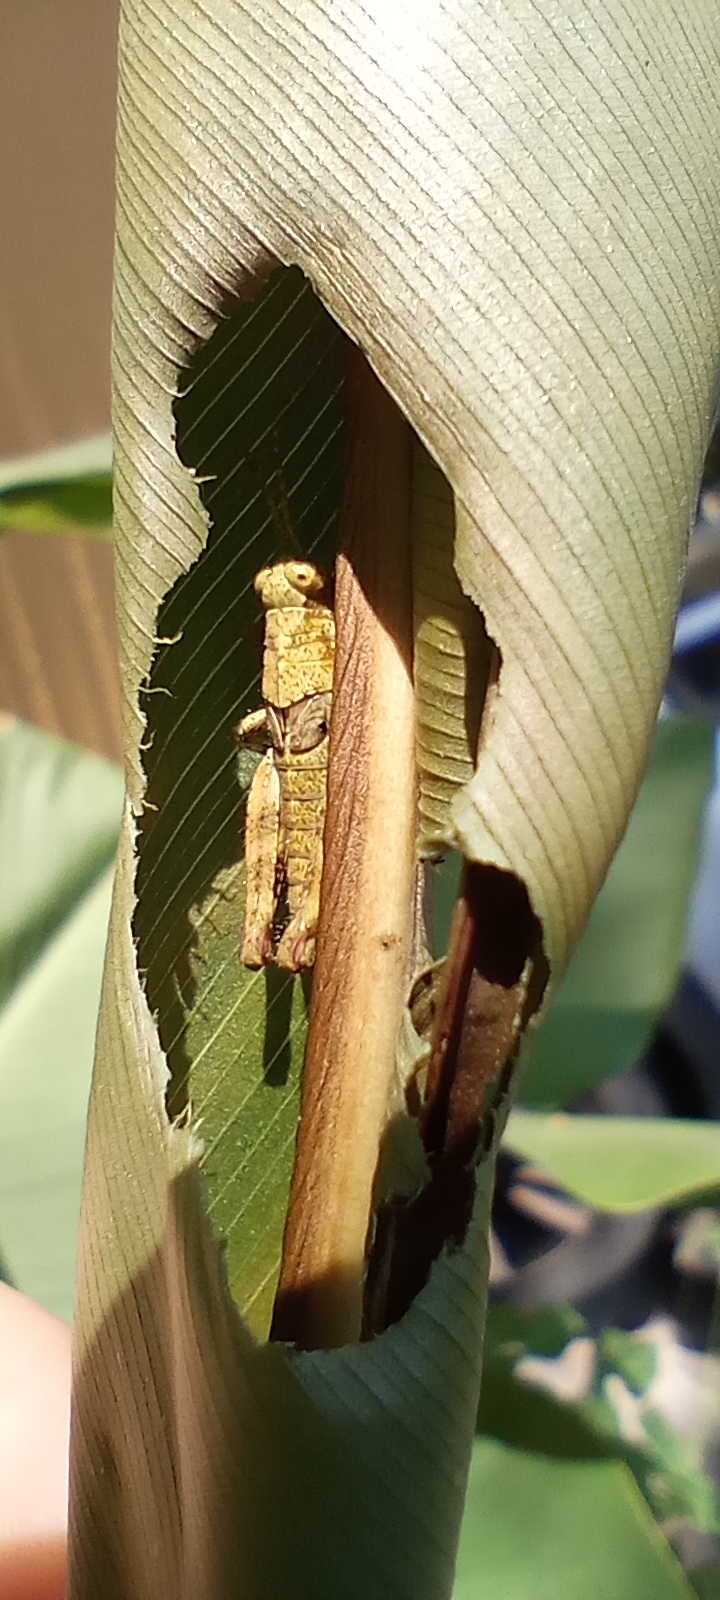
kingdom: Animalia
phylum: Arthropoda
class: Insecta
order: Orthoptera
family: Acrididae
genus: Ronderosia
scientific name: Ronderosia bergii
